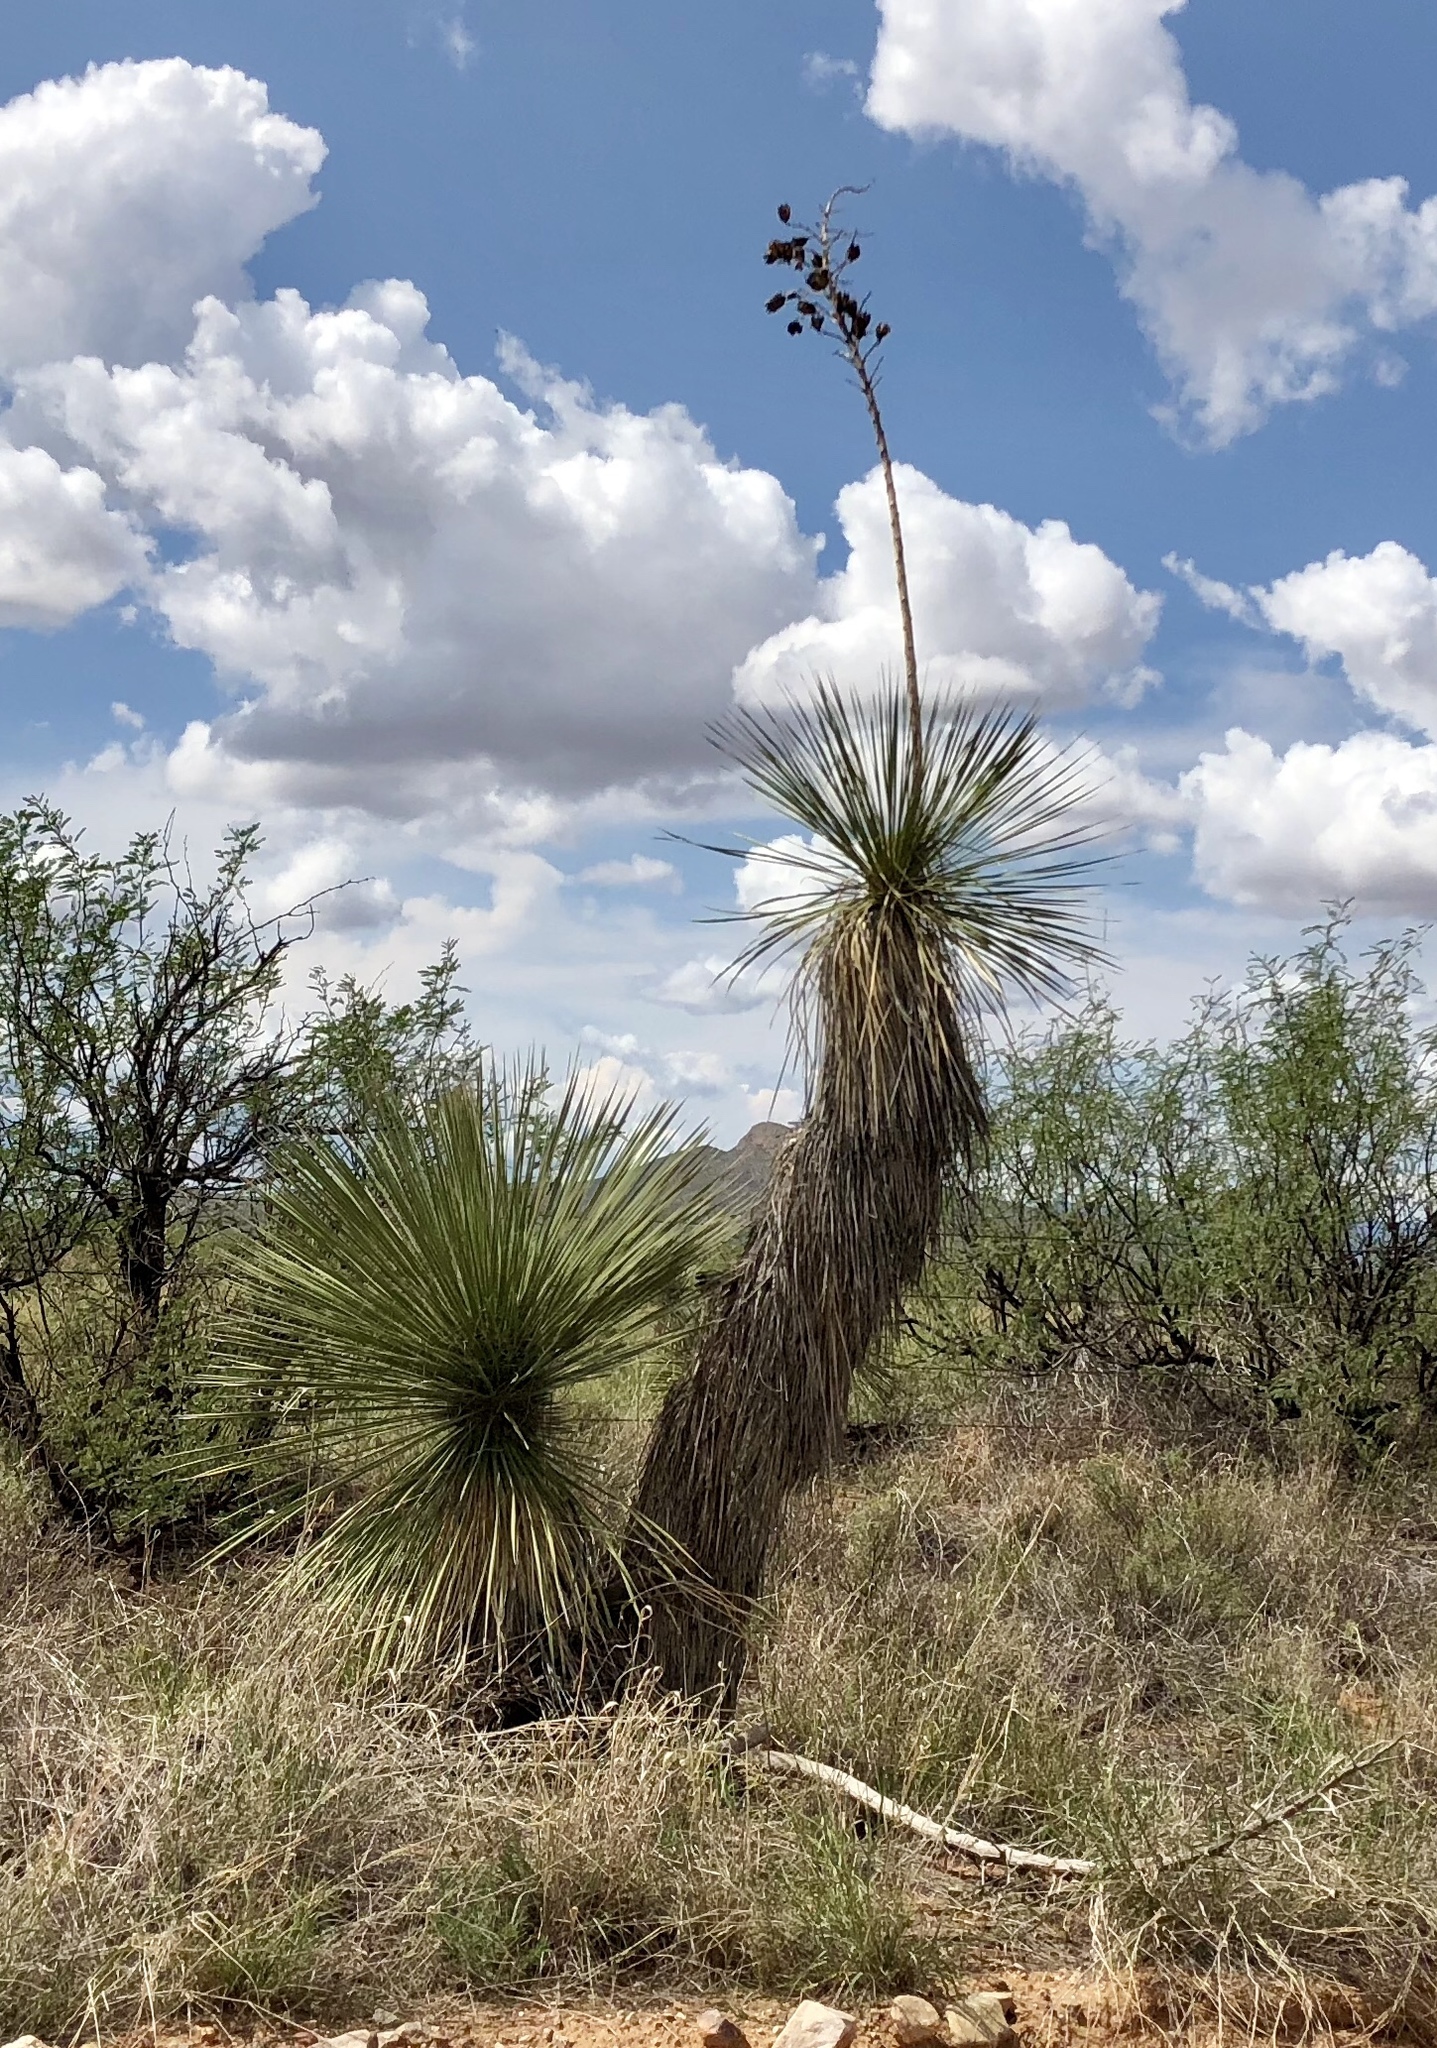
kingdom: Plantae
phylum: Tracheophyta
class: Liliopsida
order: Asparagales
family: Asparagaceae
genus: Yucca
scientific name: Yucca elata
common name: Palmella
